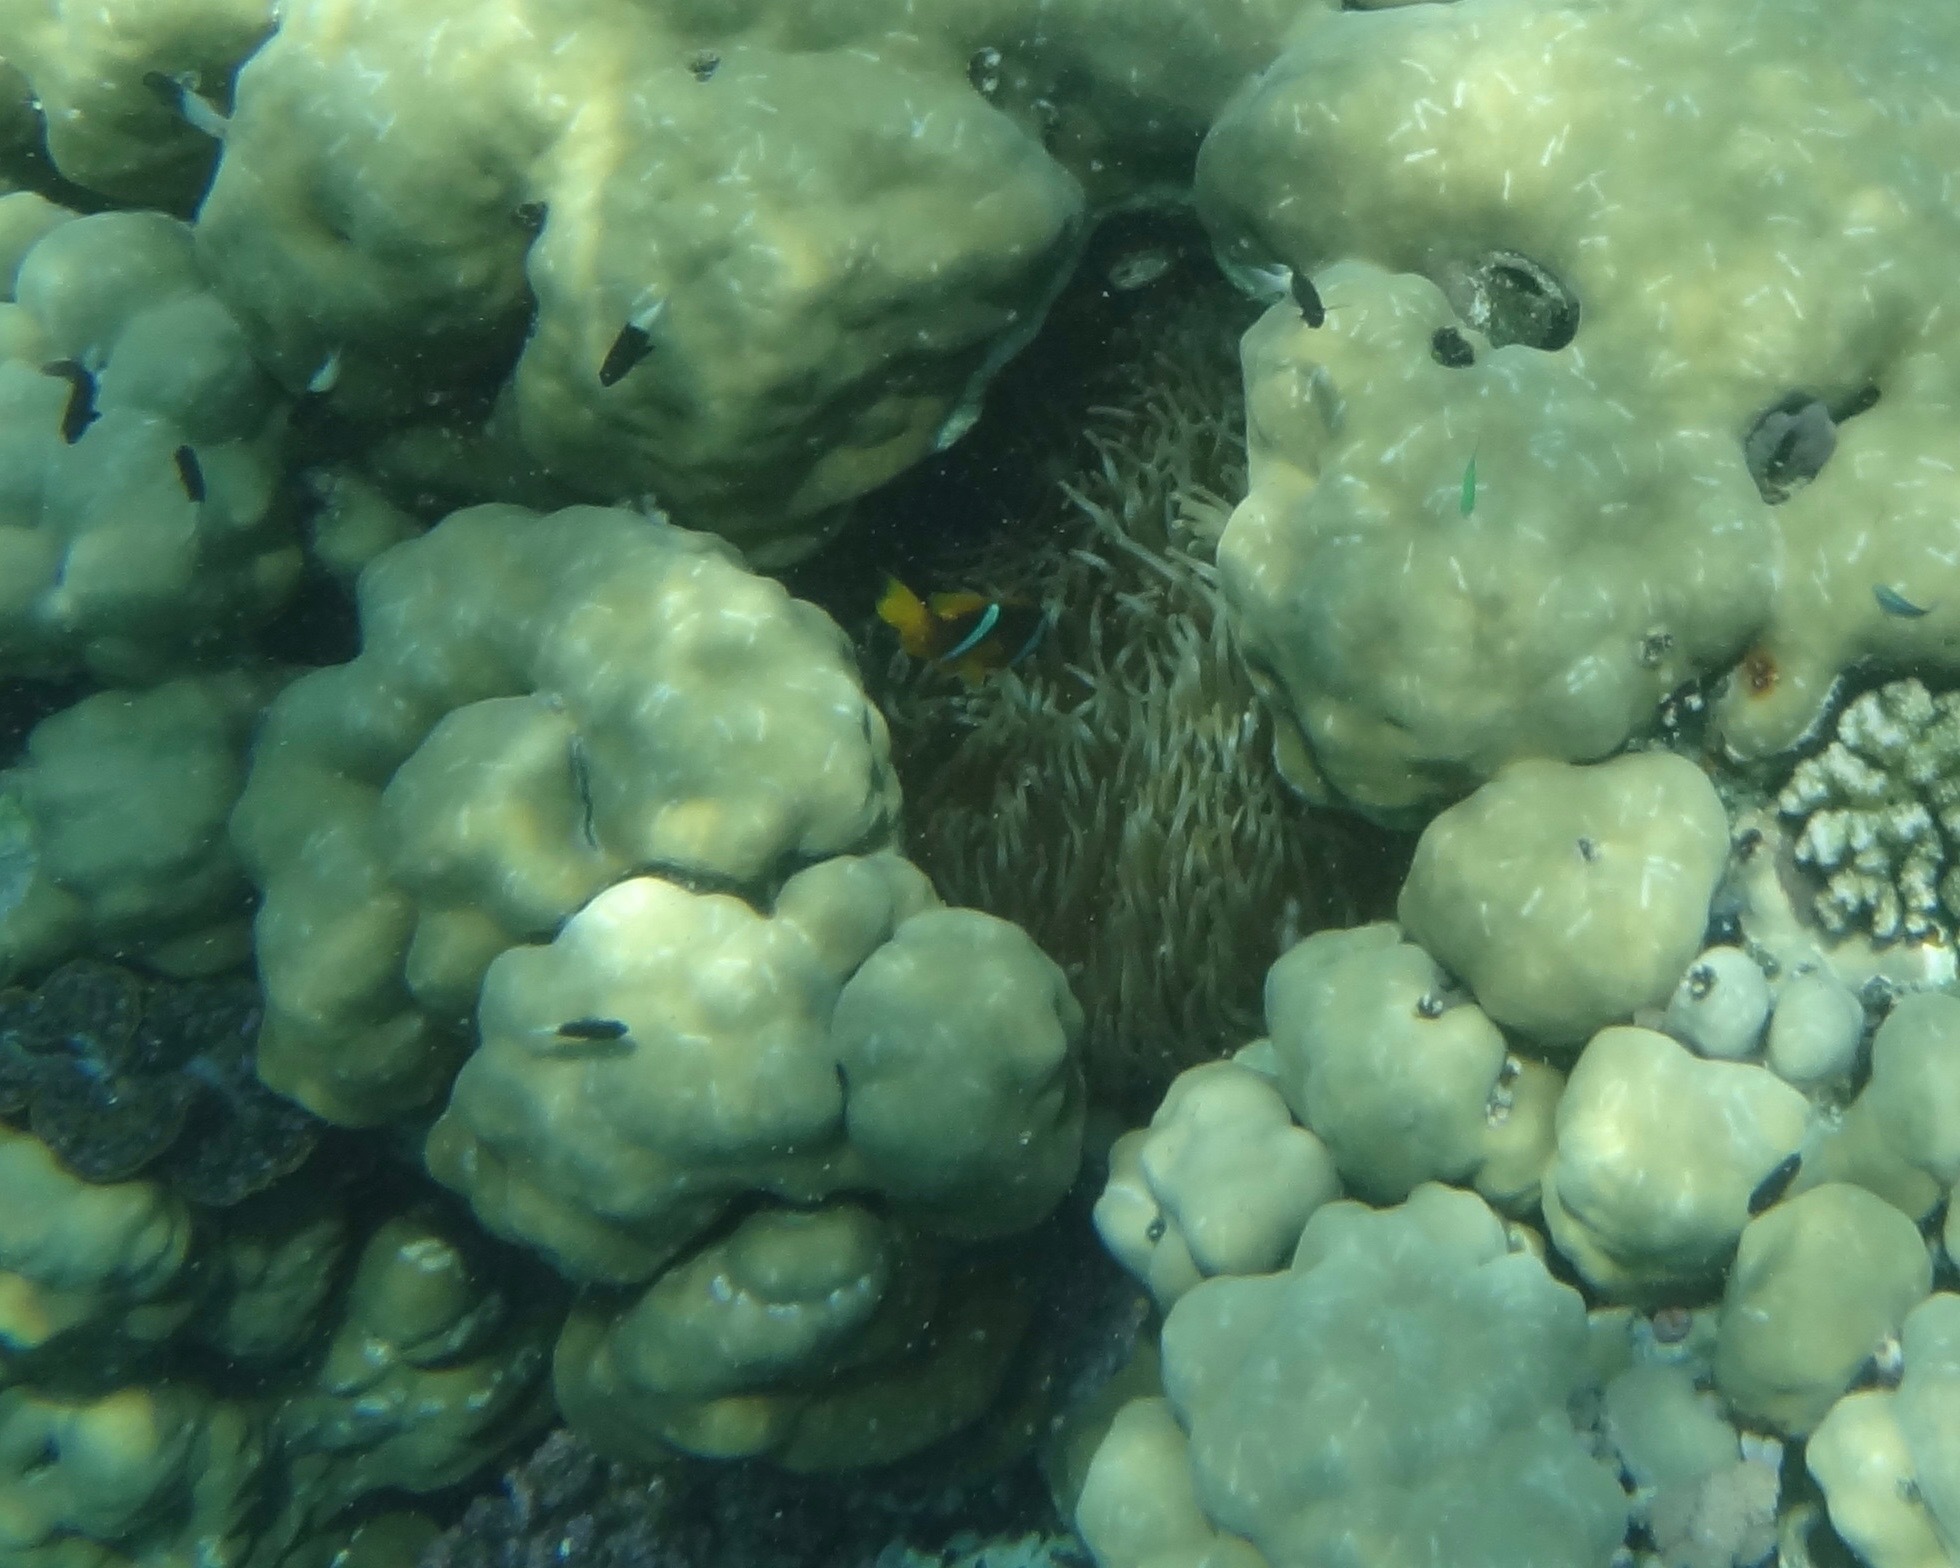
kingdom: Animalia
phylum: Chordata
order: Perciformes
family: Pomacentridae
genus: Amphiprion
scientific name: Amphiprion bicinctus
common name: Two-banded anemonefish
